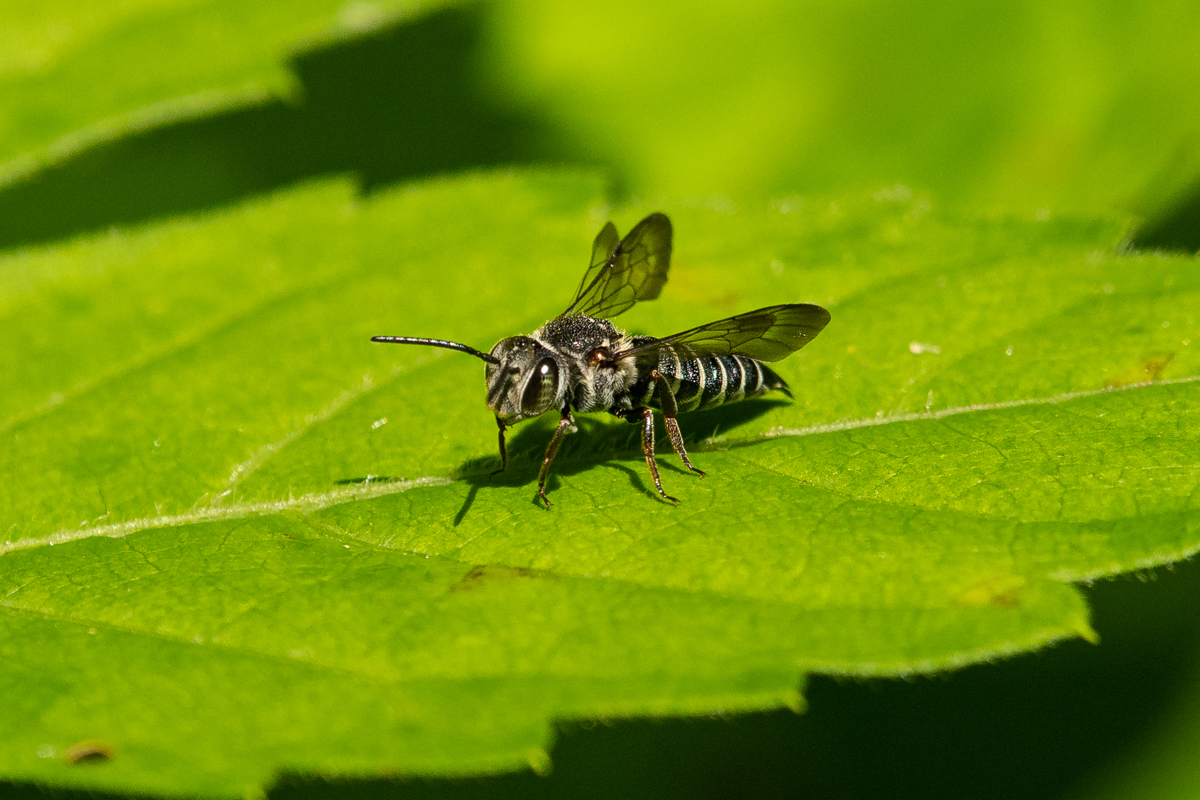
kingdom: Animalia
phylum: Arthropoda
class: Insecta
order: Hymenoptera
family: Megachilidae
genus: Coelioxys
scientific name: Coelioxys sayi
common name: Say's cuckoo leaf-cutter bee
